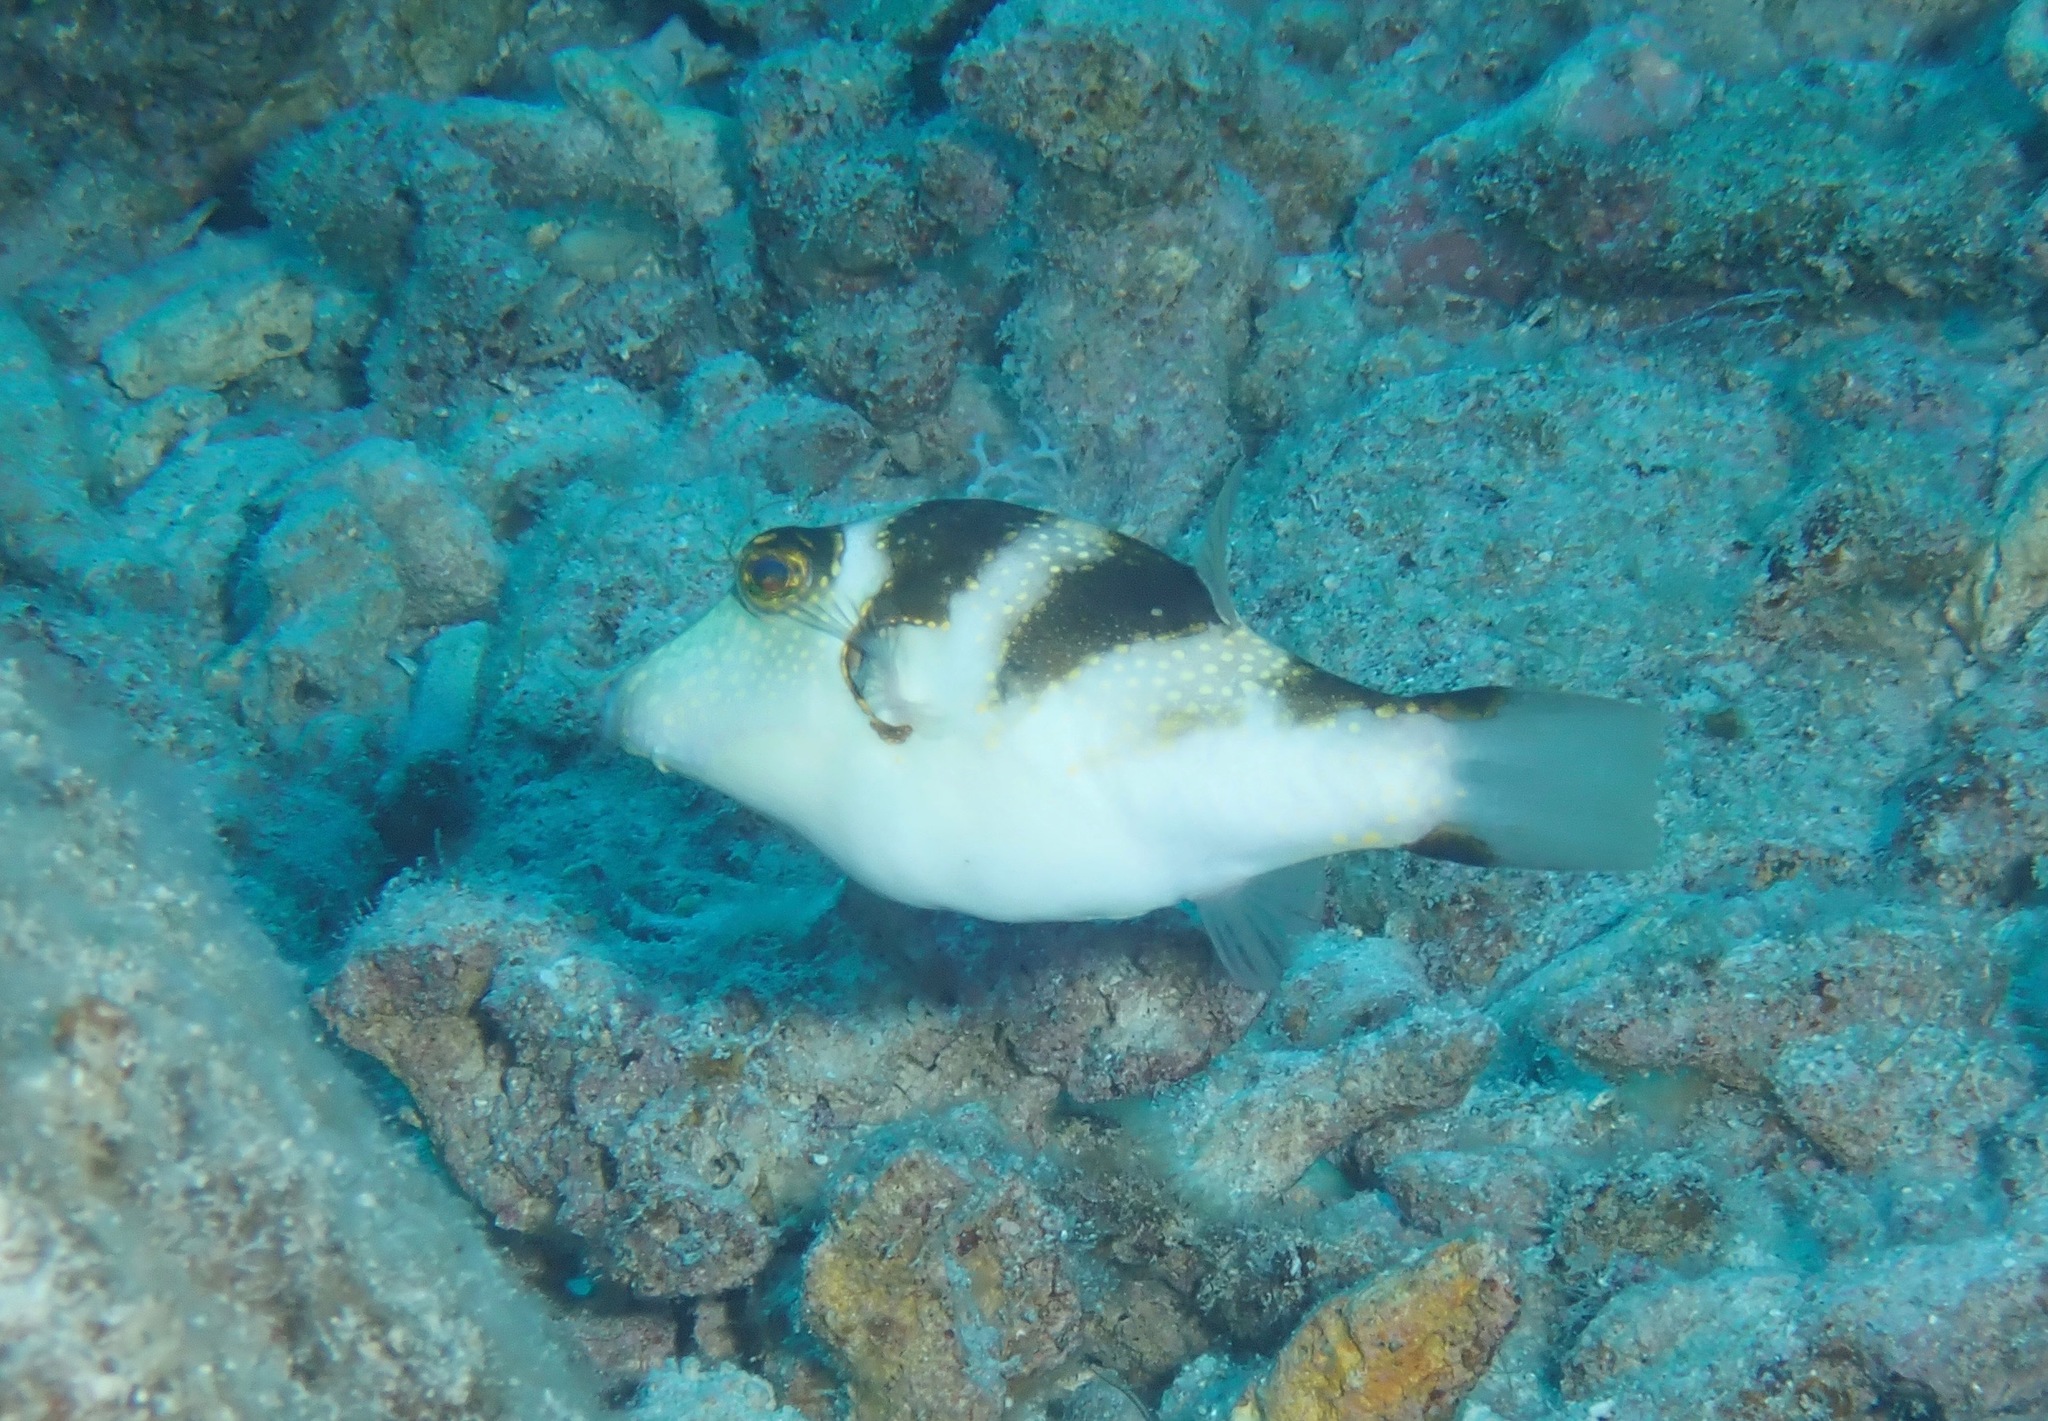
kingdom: Animalia
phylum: Chordata
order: Tetraodontiformes
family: Tetraodontidae
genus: Canthigaster
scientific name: Canthigaster coronata
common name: Crown toby
